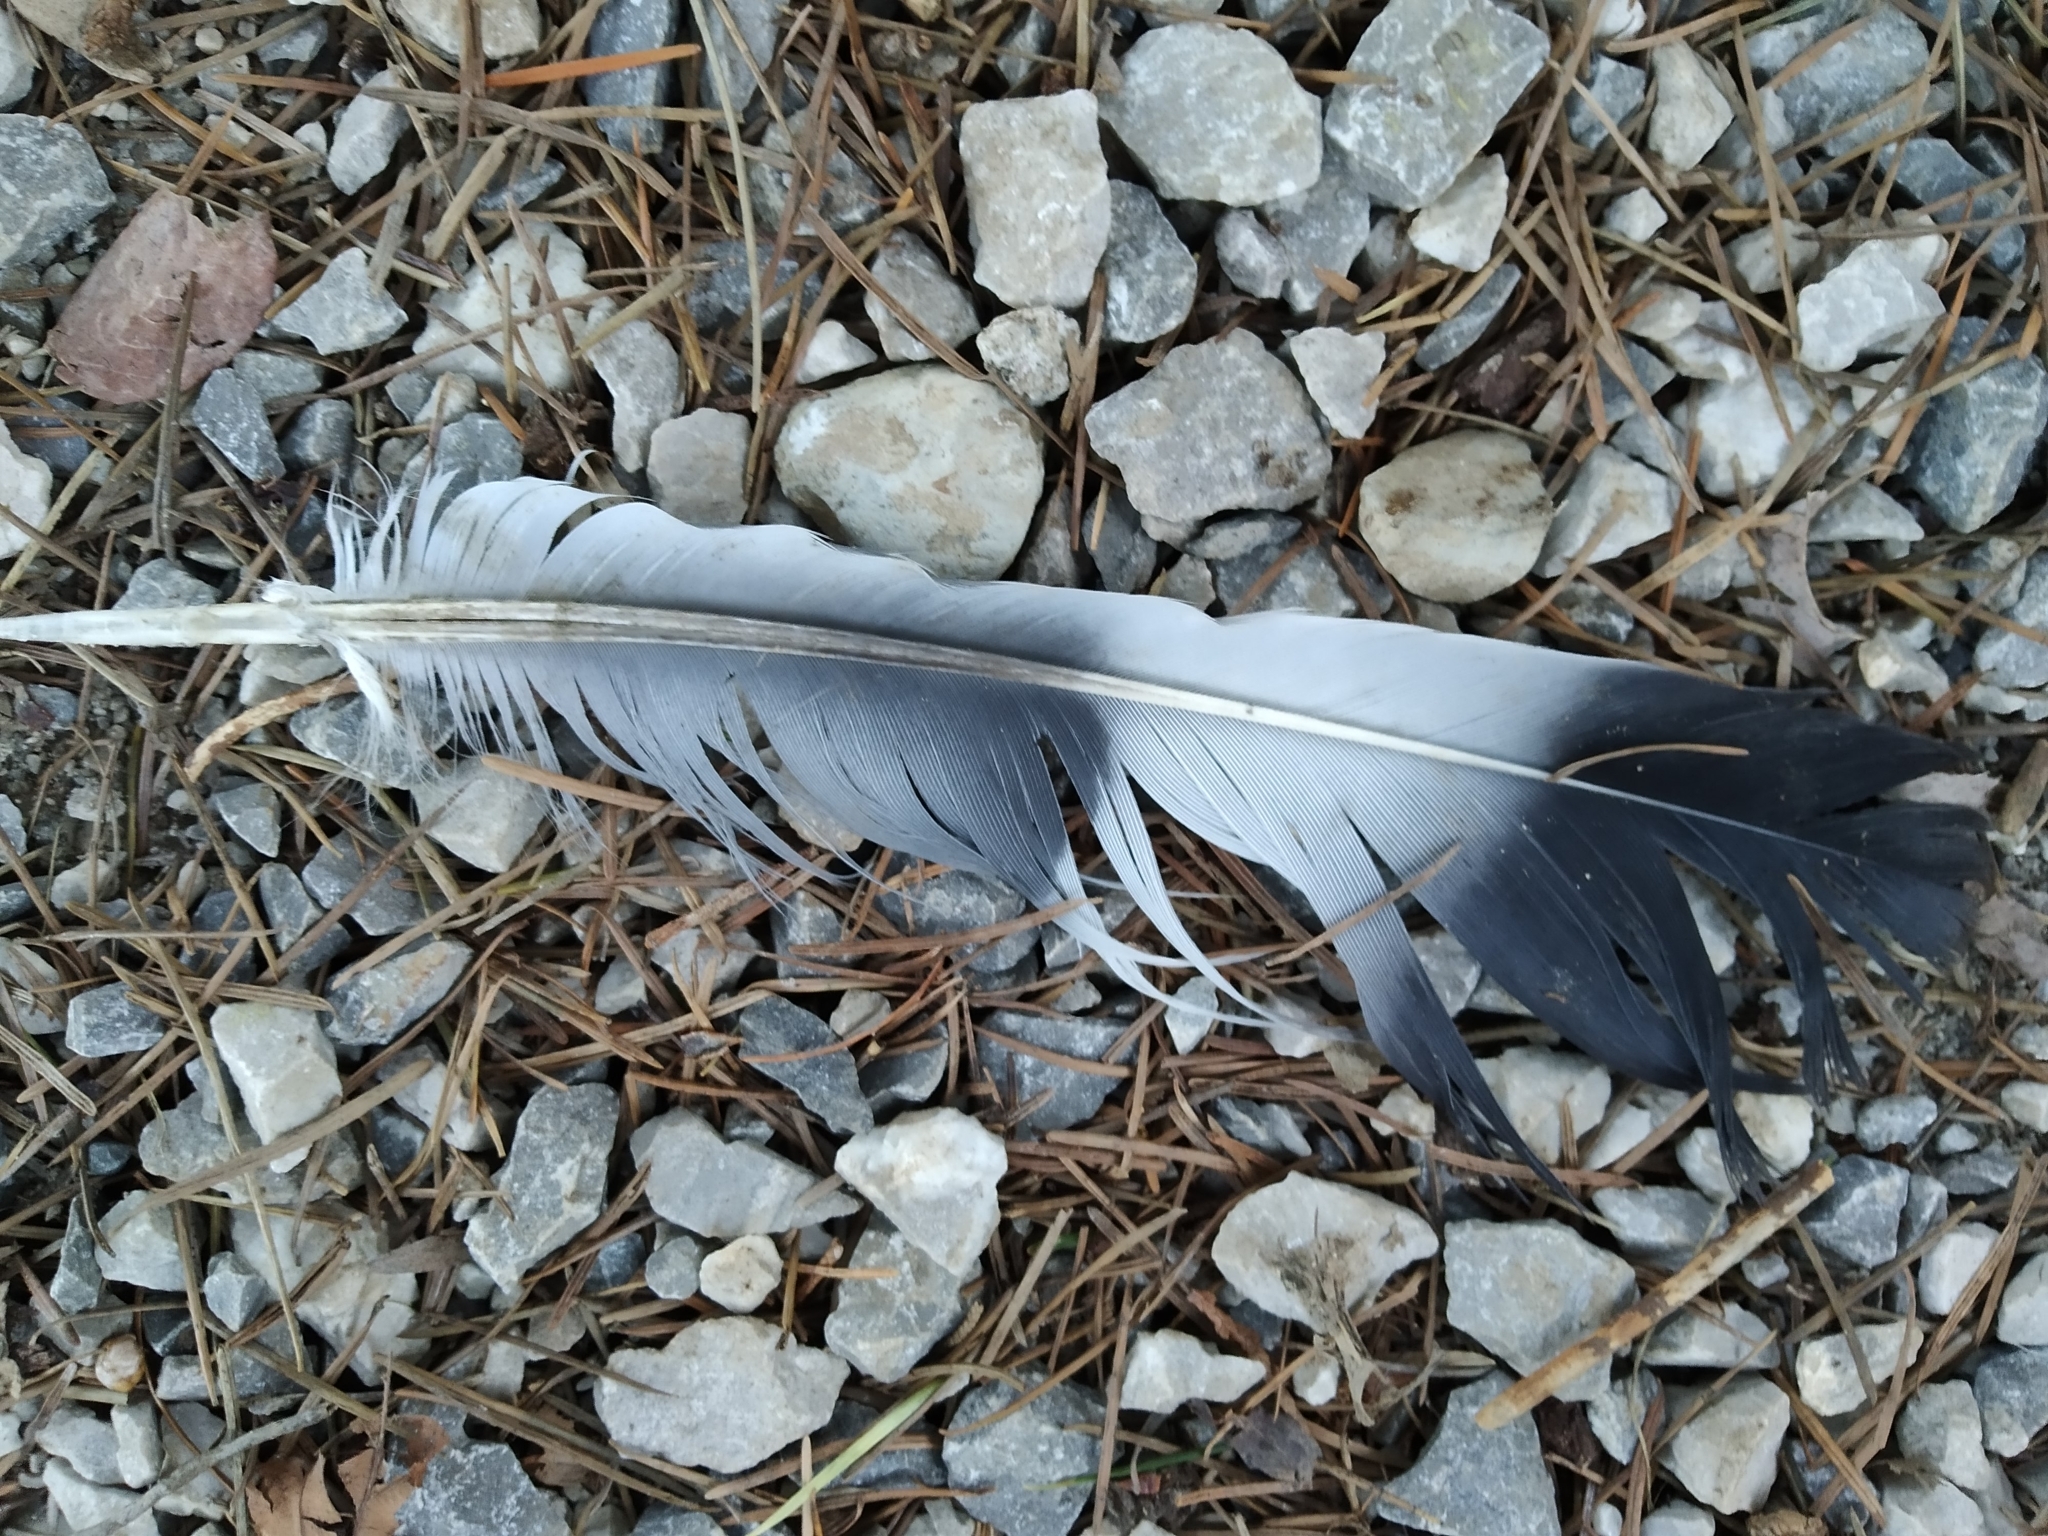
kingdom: Animalia
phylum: Chordata
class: Aves
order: Columbiformes
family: Columbidae
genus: Columba
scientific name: Columba palumbus
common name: Common wood pigeon
